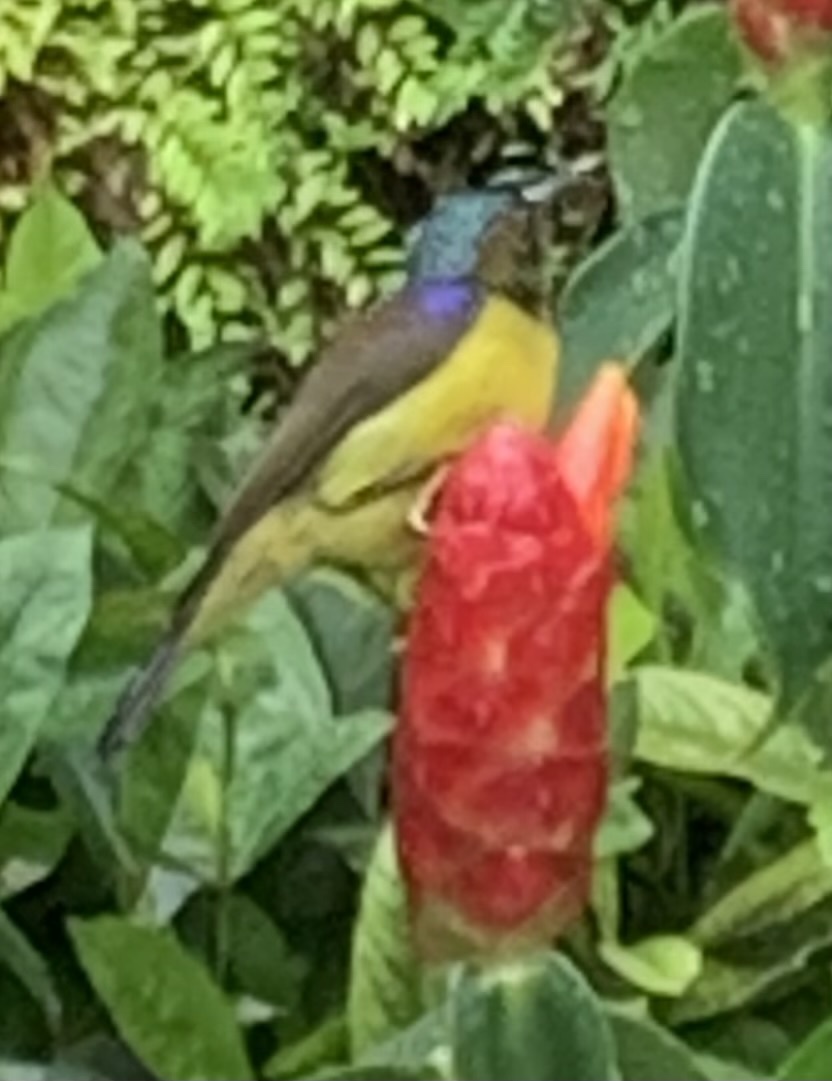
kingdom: Animalia
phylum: Chordata
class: Aves
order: Passeriformes
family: Nectariniidae
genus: Anthreptes
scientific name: Anthreptes malacensis
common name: Brown-throated sunbird
